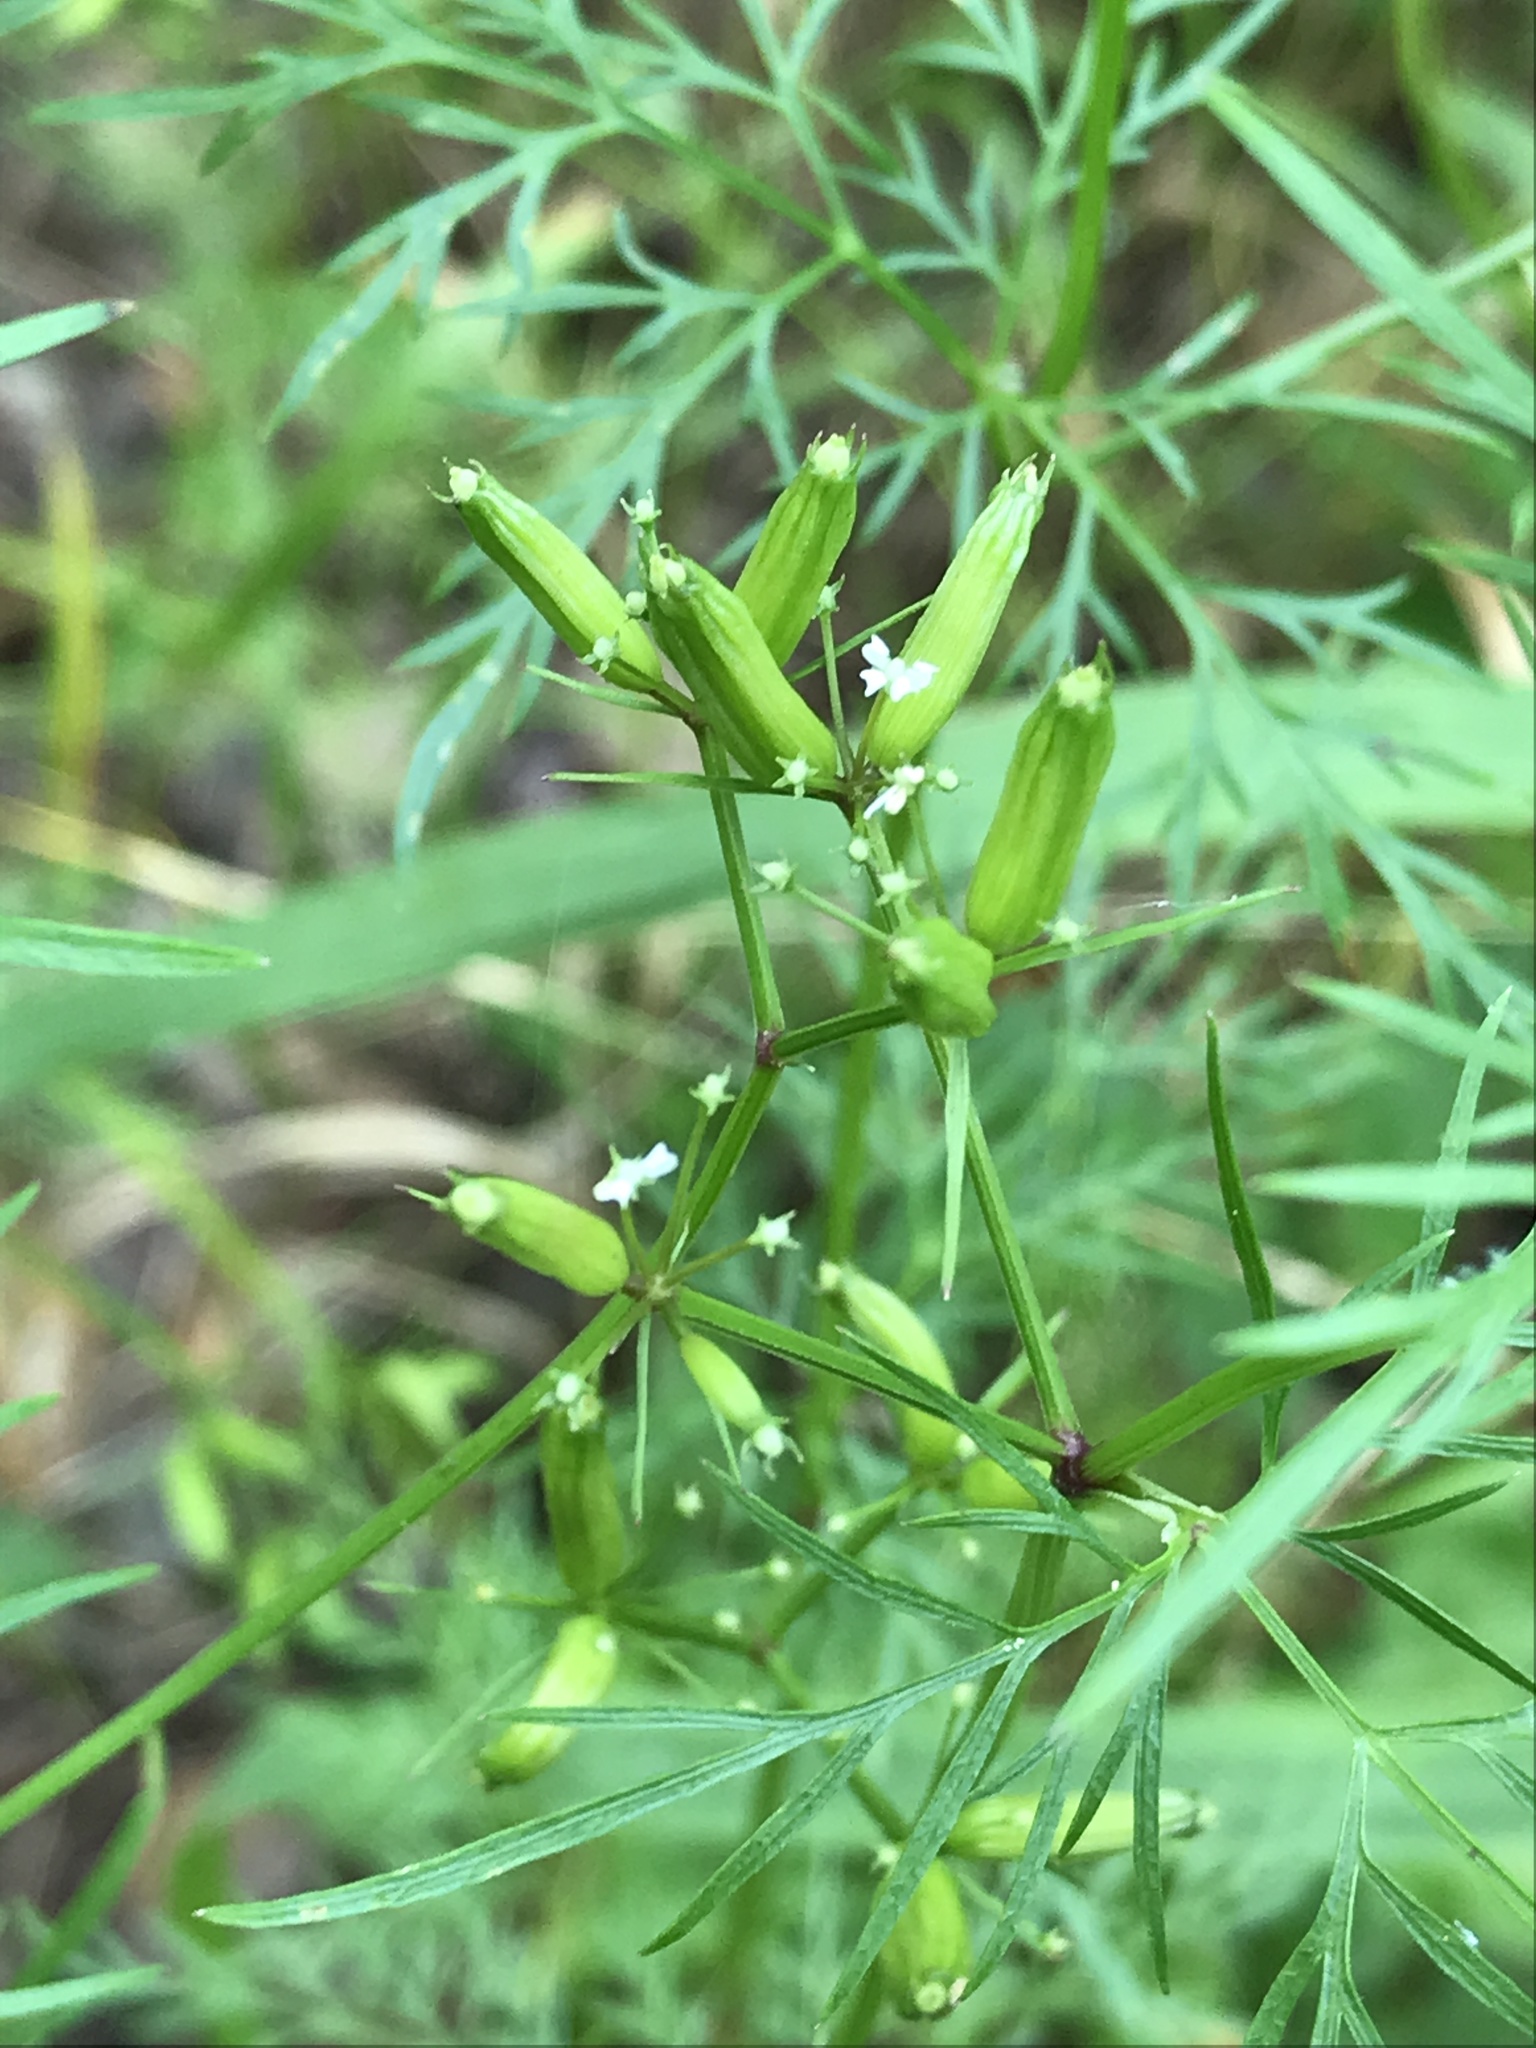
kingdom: Plantae
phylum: Tracheophyta
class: Magnoliopsida
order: Apiales
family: Apiaceae
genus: Trepocarpus
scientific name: Trepocarpus aethusae
